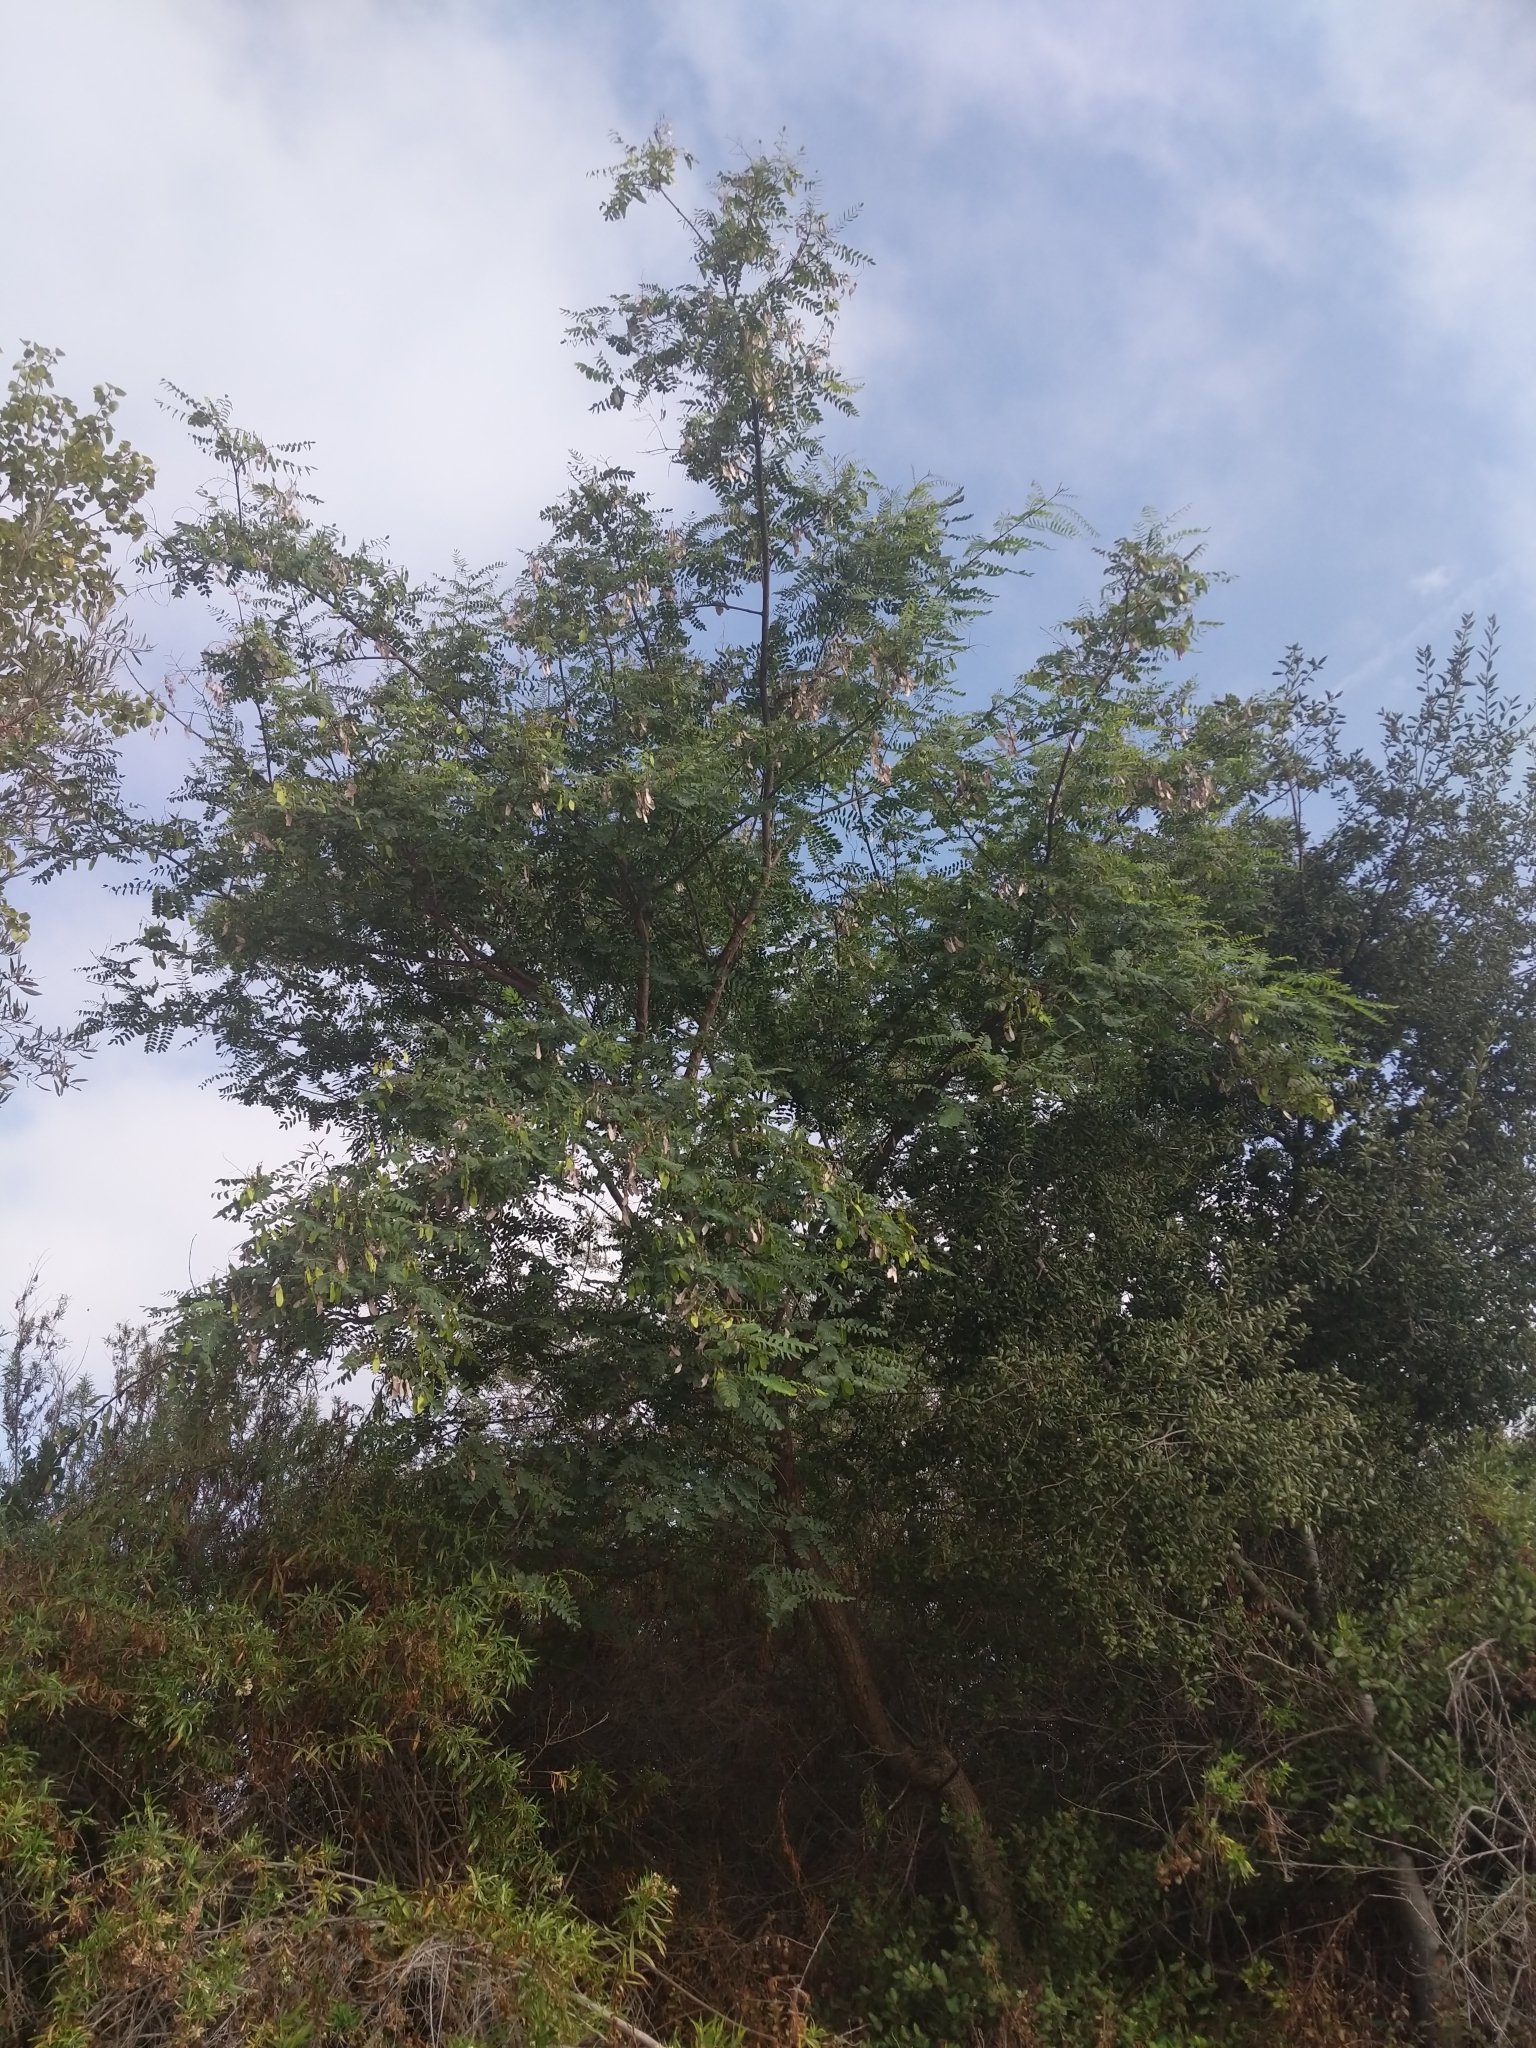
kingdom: Plantae
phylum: Tracheophyta
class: Magnoliopsida
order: Fabales
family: Fabaceae
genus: Tipuana
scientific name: Tipuana tipu
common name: Tiputree
